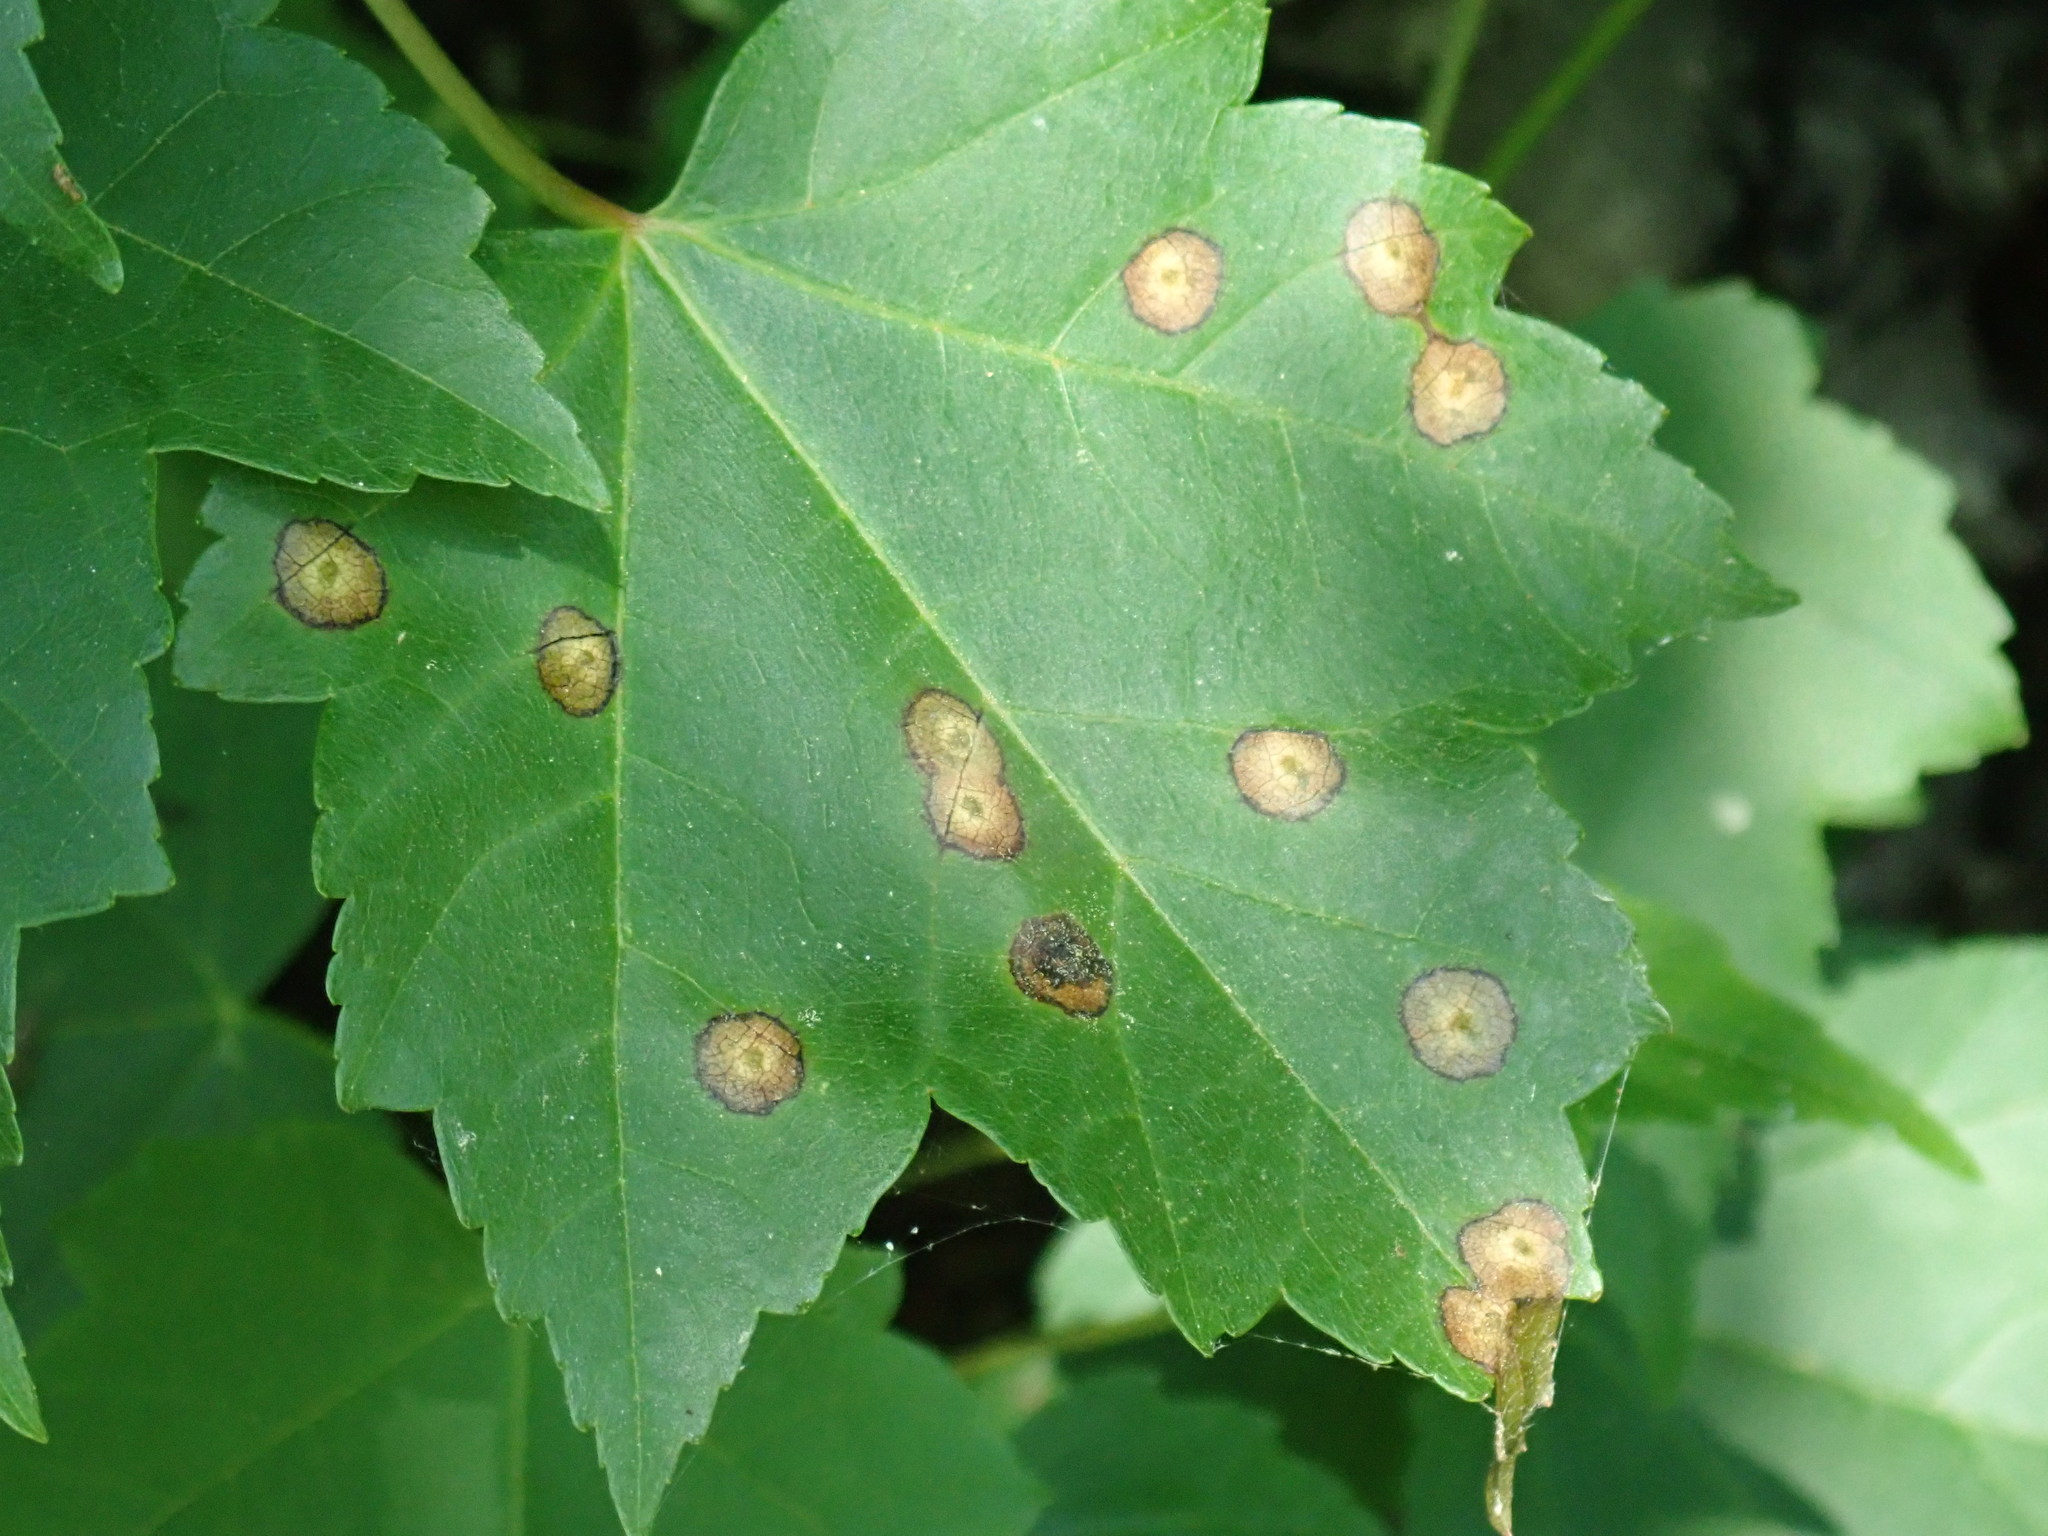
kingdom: Animalia
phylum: Arthropoda
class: Insecta
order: Diptera
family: Cecidomyiidae
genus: Acericecis
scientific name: Acericecis ocellaris
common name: Ocellate gall midge
